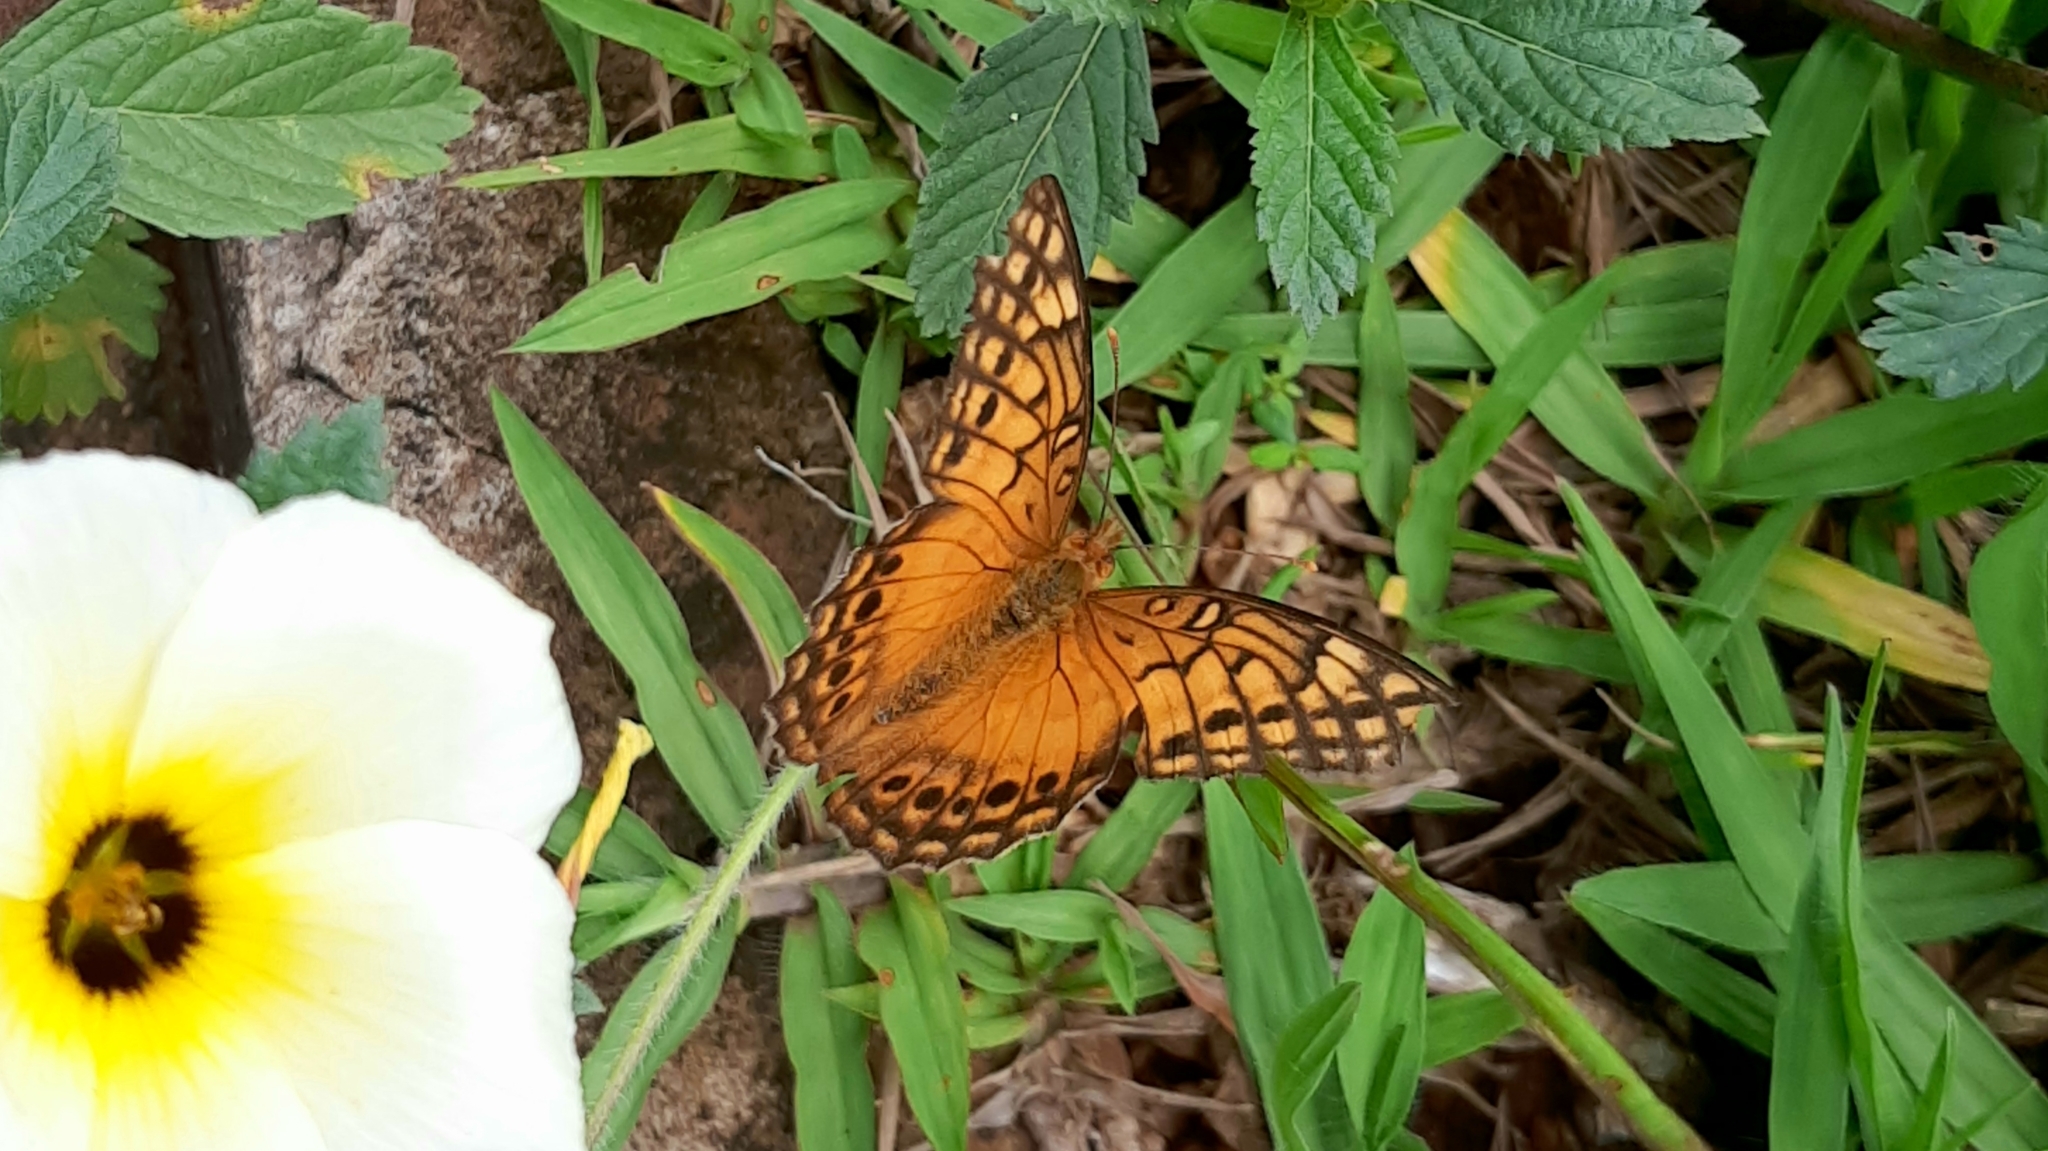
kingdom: Animalia
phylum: Arthropoda
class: Insecta
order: Lepidoptera
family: Nymphalidae
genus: Euptoieta
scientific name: Euptoieta hegesia
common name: Mexican fritillary
